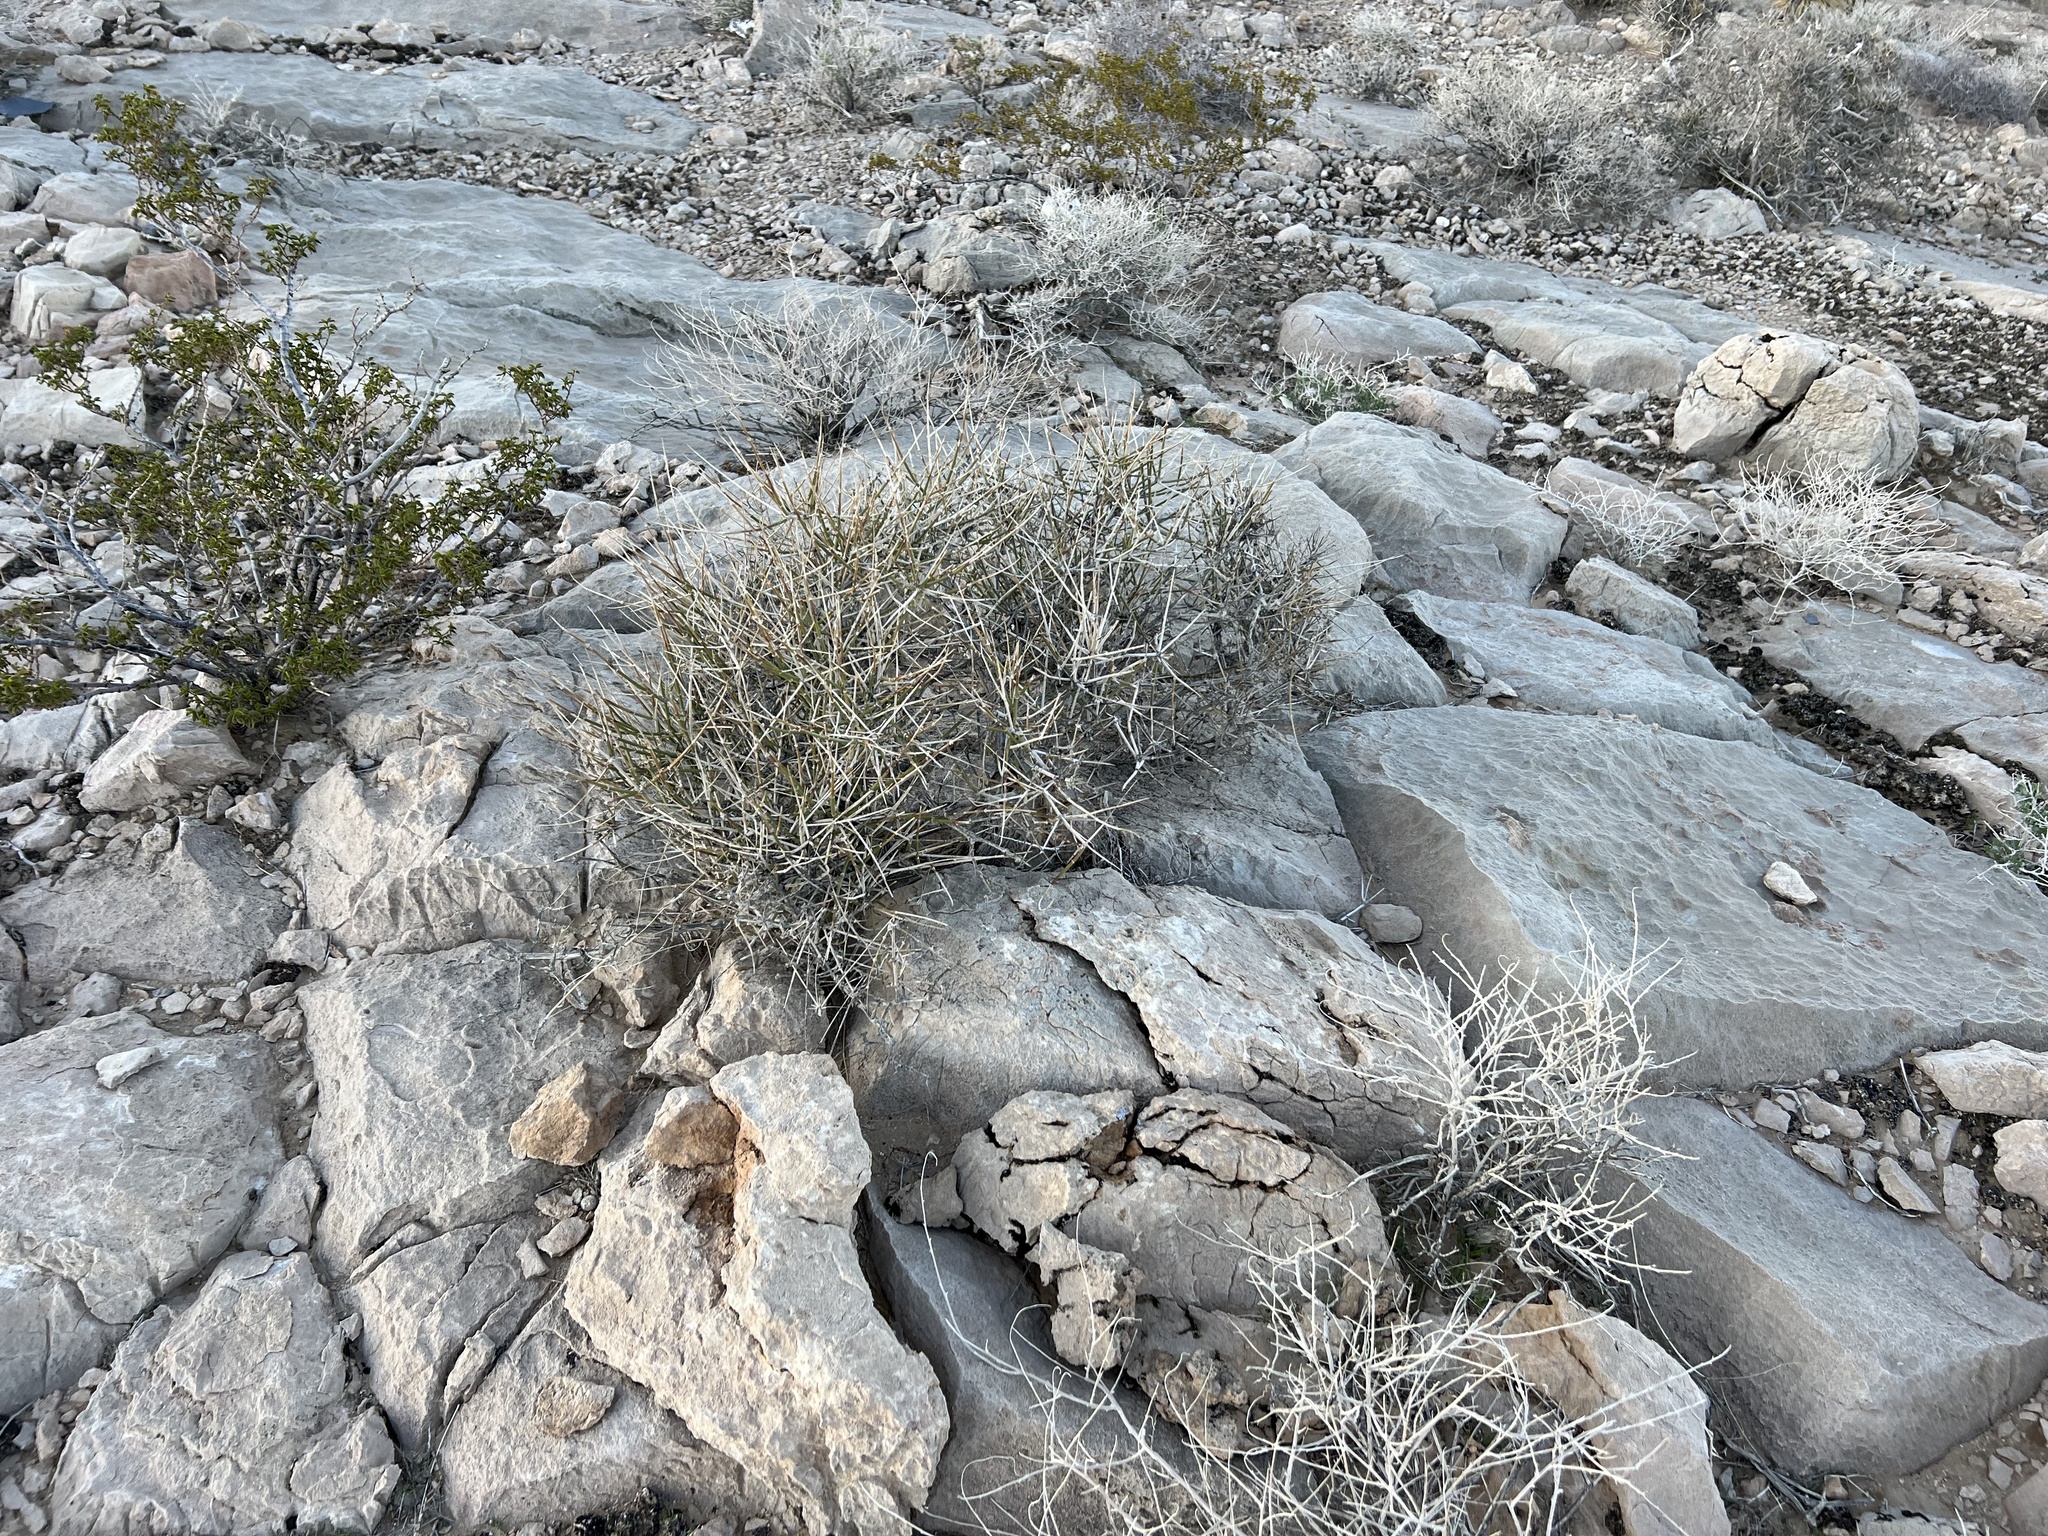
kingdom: Plantae
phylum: Tracheophyta
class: Gnetopsida
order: Ephedrales
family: Ephedraceae
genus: Ephedra
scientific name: Ephedra nevadensis
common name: Gray ephedra
